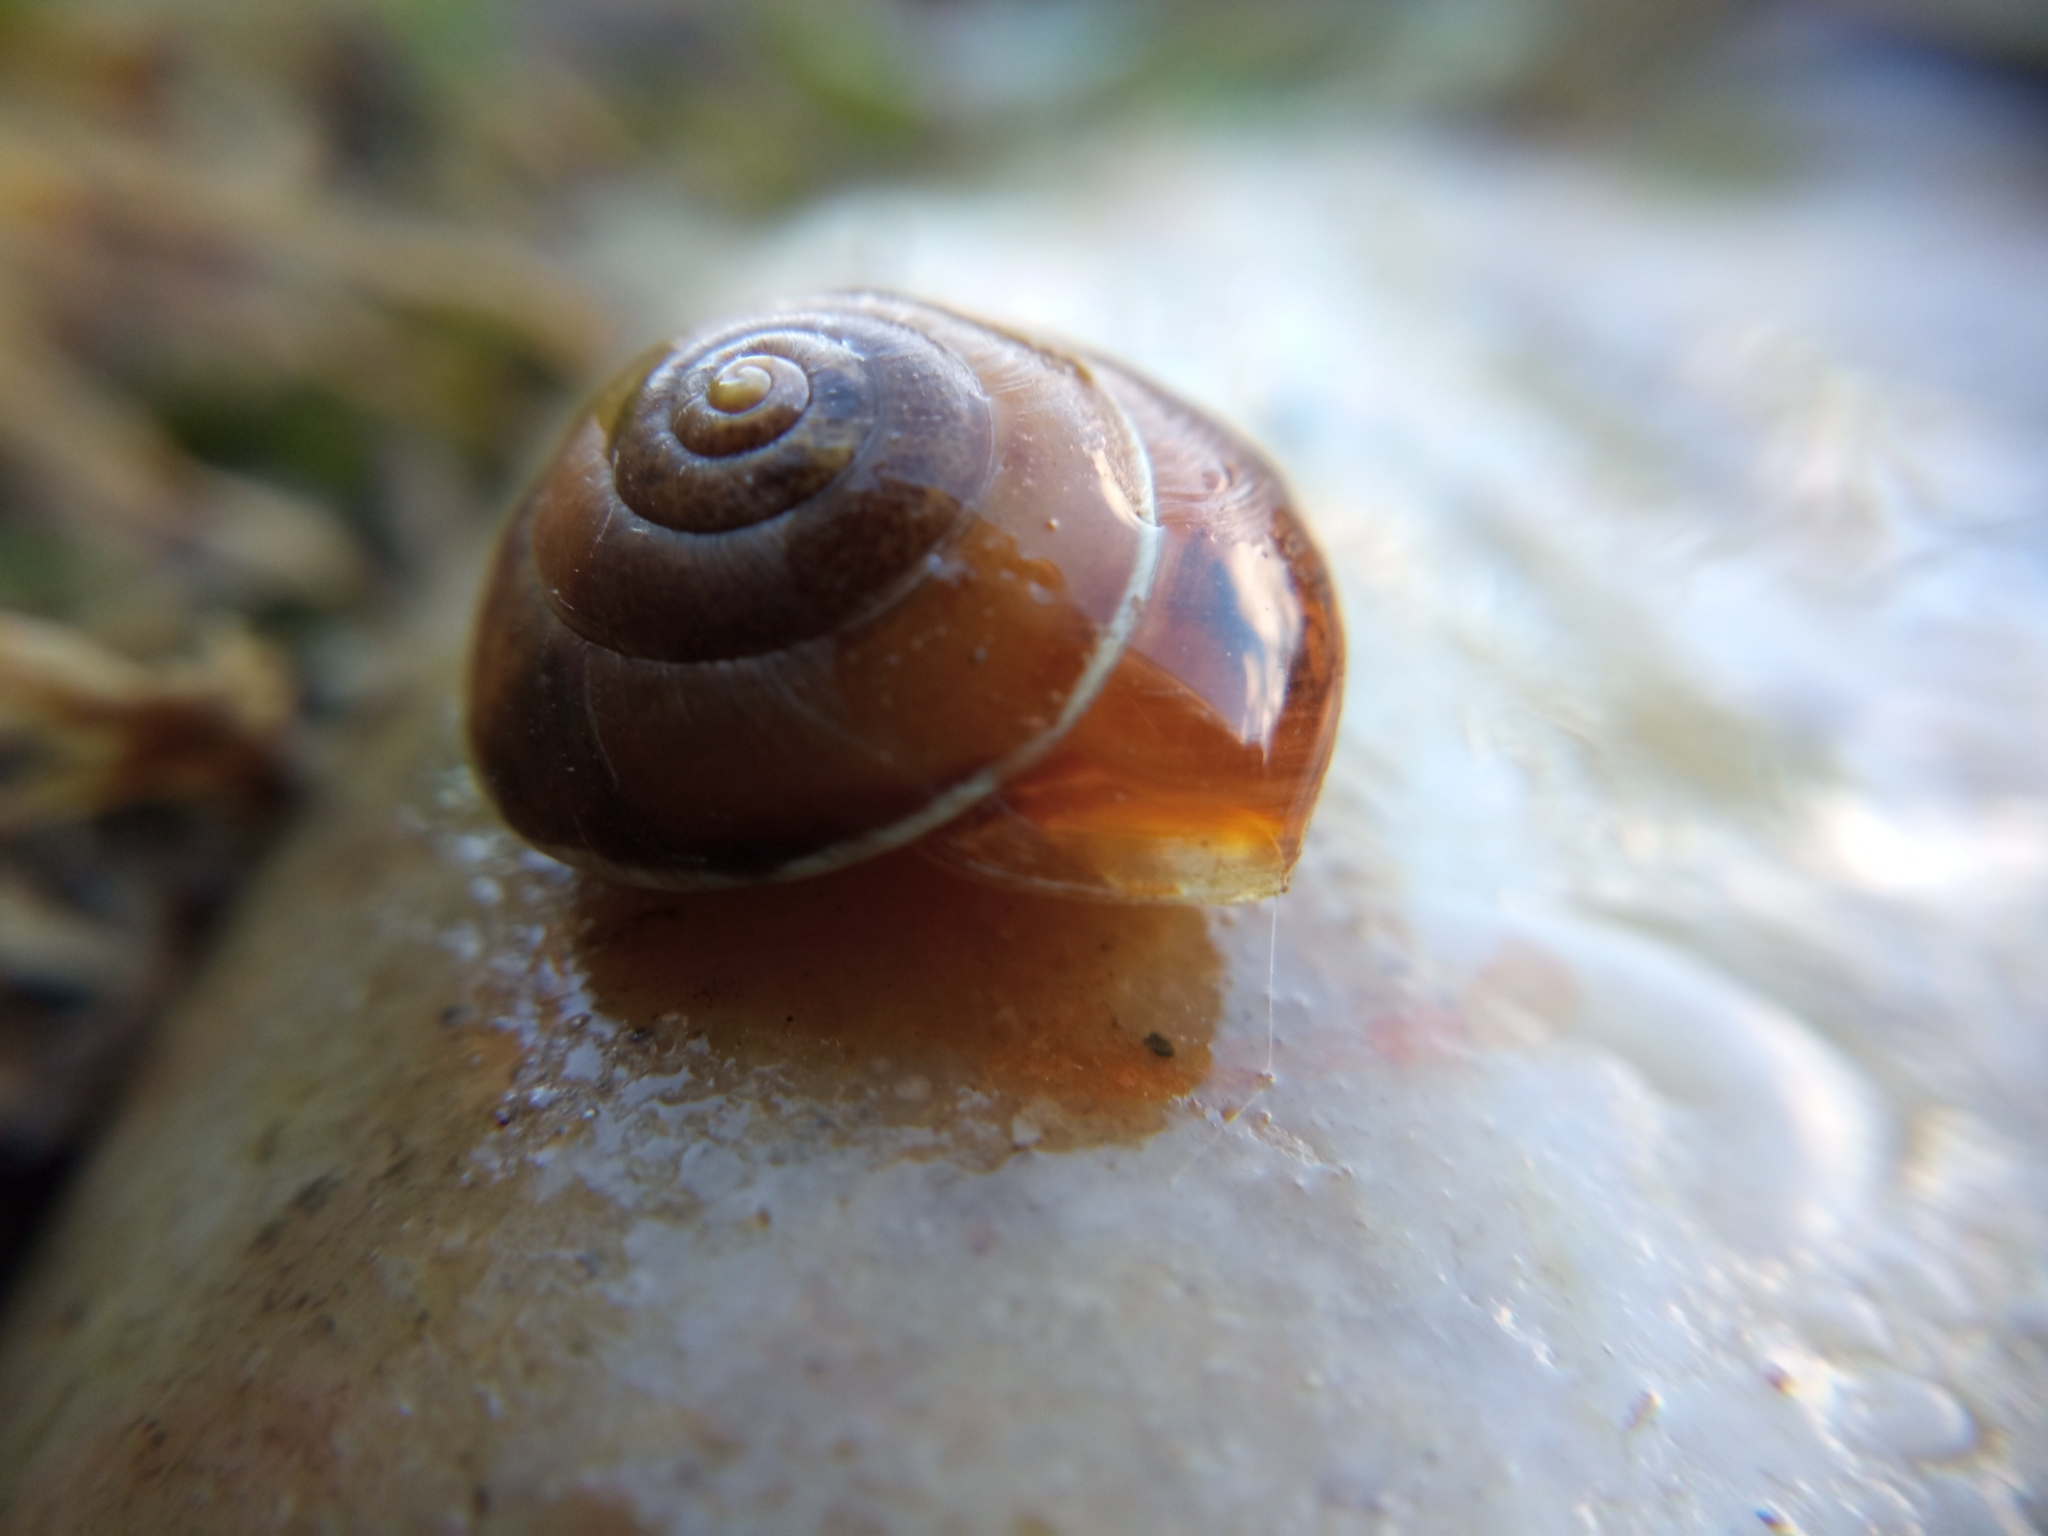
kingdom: Animalia
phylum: Mollusca
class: Gastropoda
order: Stylommatophora
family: Hygromiidae
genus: Hygromia
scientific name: Hygromia cinctella
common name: Girdled snail
